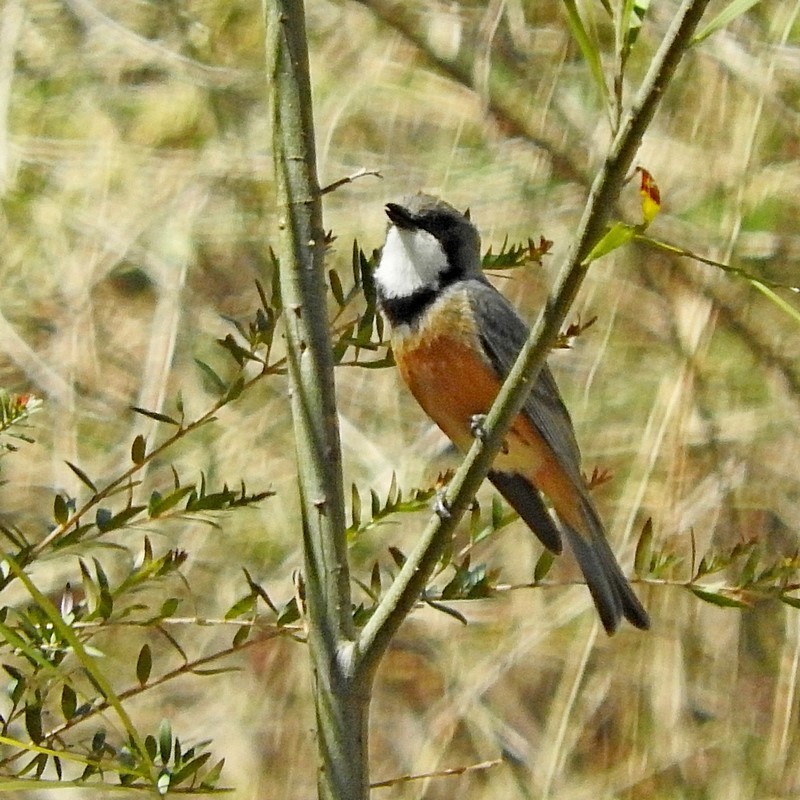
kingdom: Animalia
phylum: Chordata
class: Aves
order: Passeriformes
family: Pachycephalidae
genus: Pachycephala
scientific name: Pachycephala rufiventris
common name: Rufous whistler
